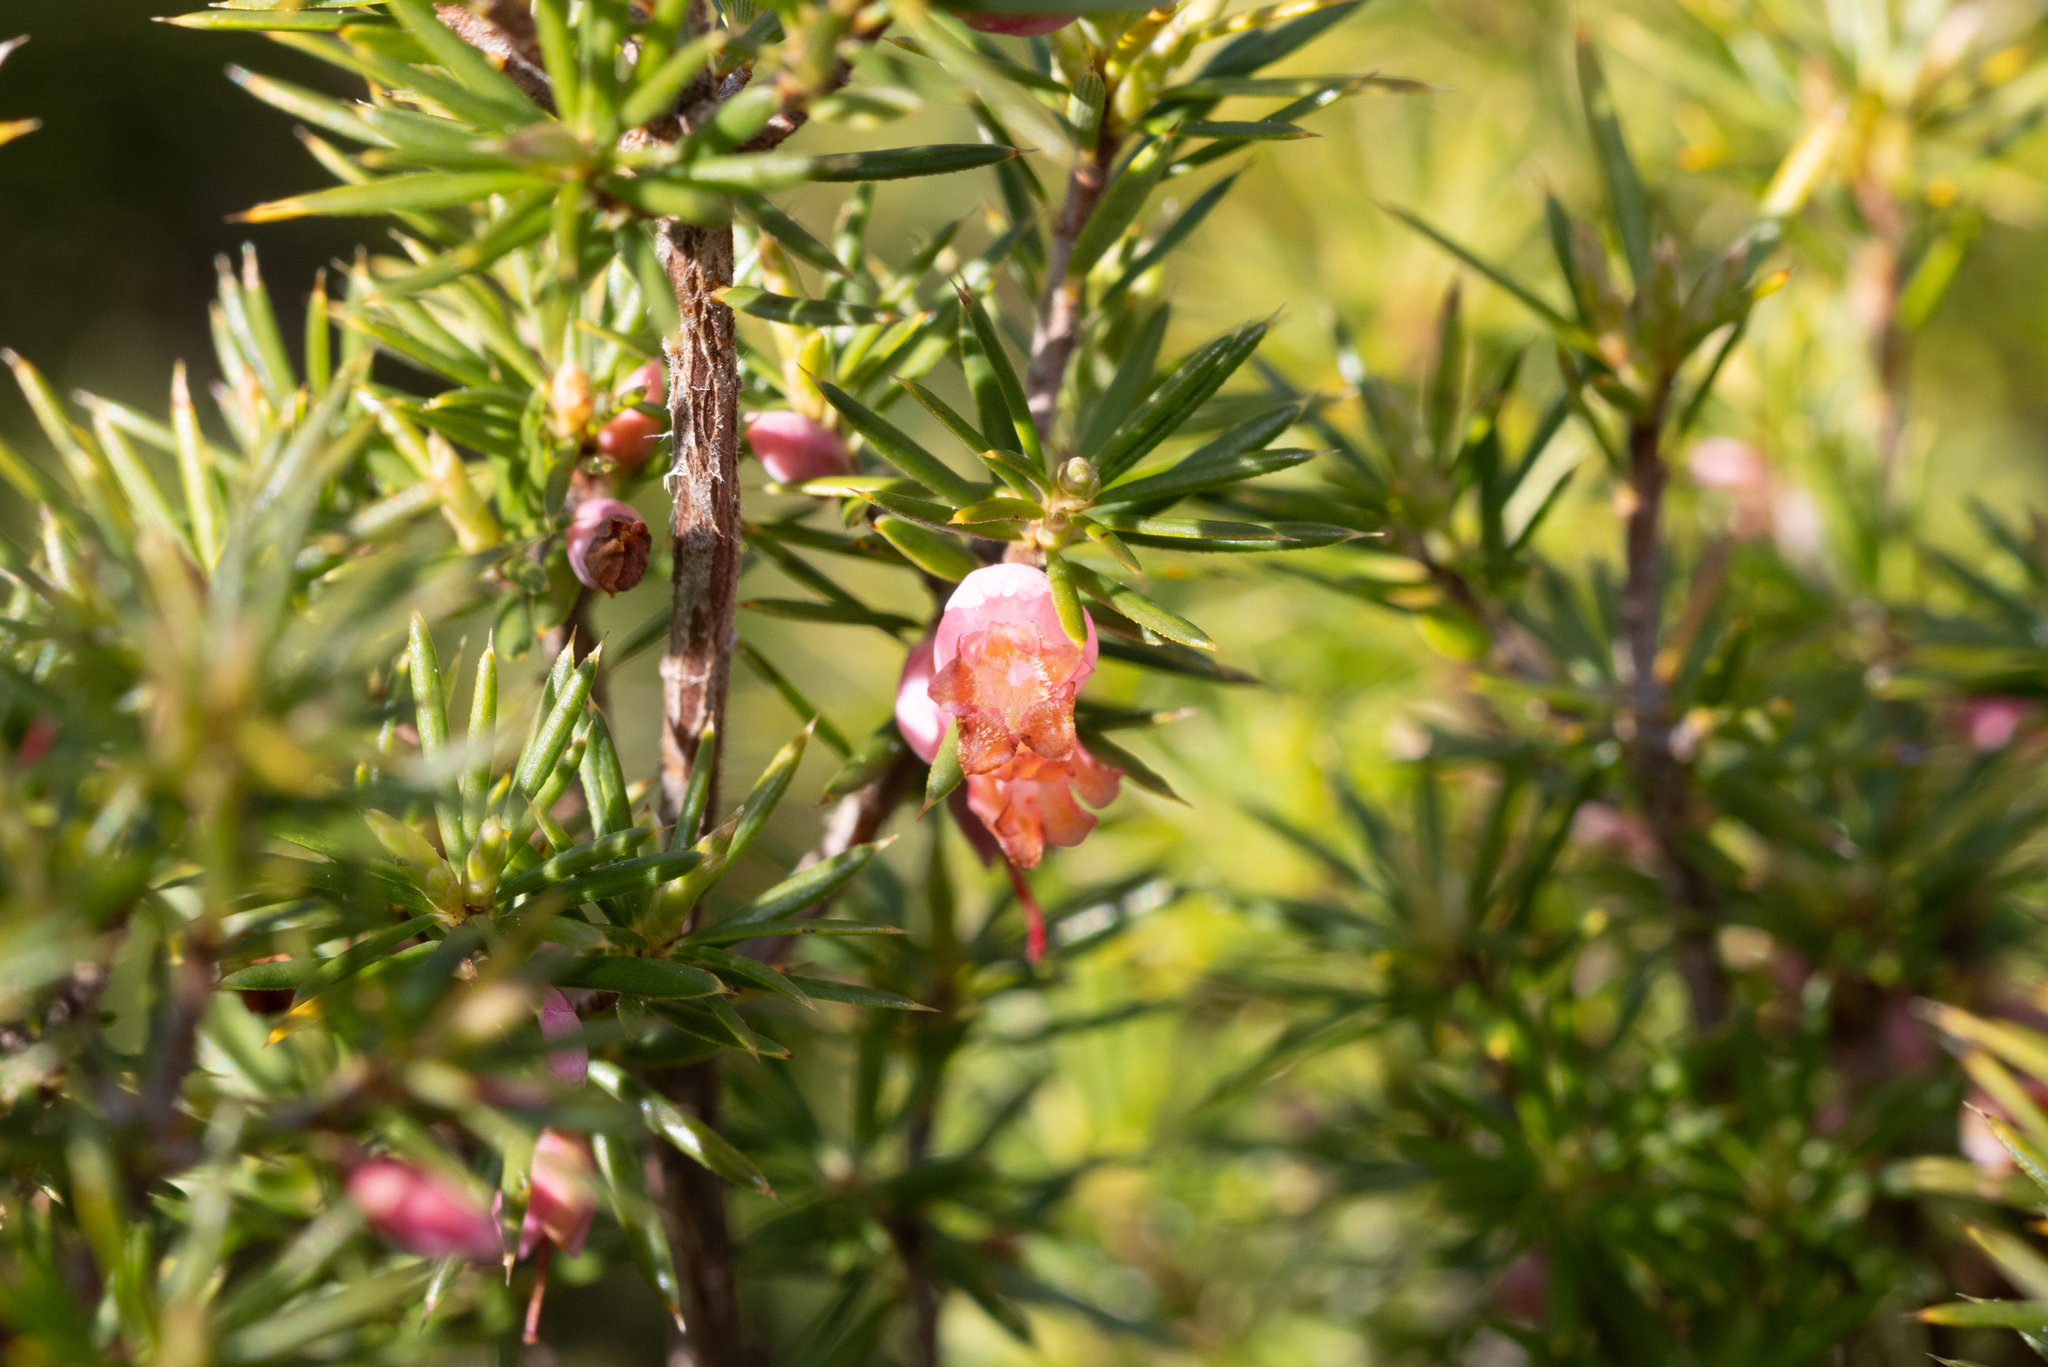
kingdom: Plantae
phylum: Tracheophyta
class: Magnoliopsida
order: Ericales
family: Ericaceae
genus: Brachyloma
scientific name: Brachyloma ericoides
